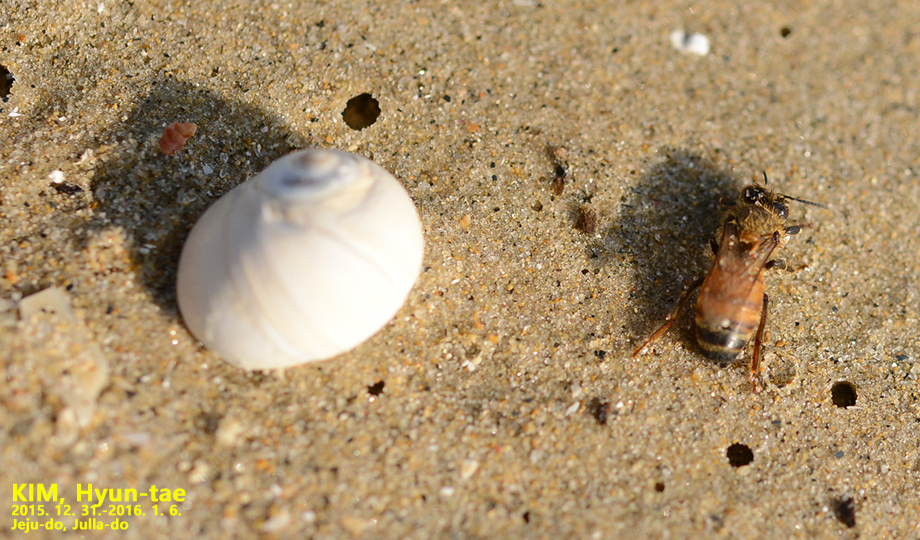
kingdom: Animalia
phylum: Arthropoda
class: Insecta
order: Hymenoptera
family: Apidae
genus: Apis
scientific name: Apis mellifera
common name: Honey bee
